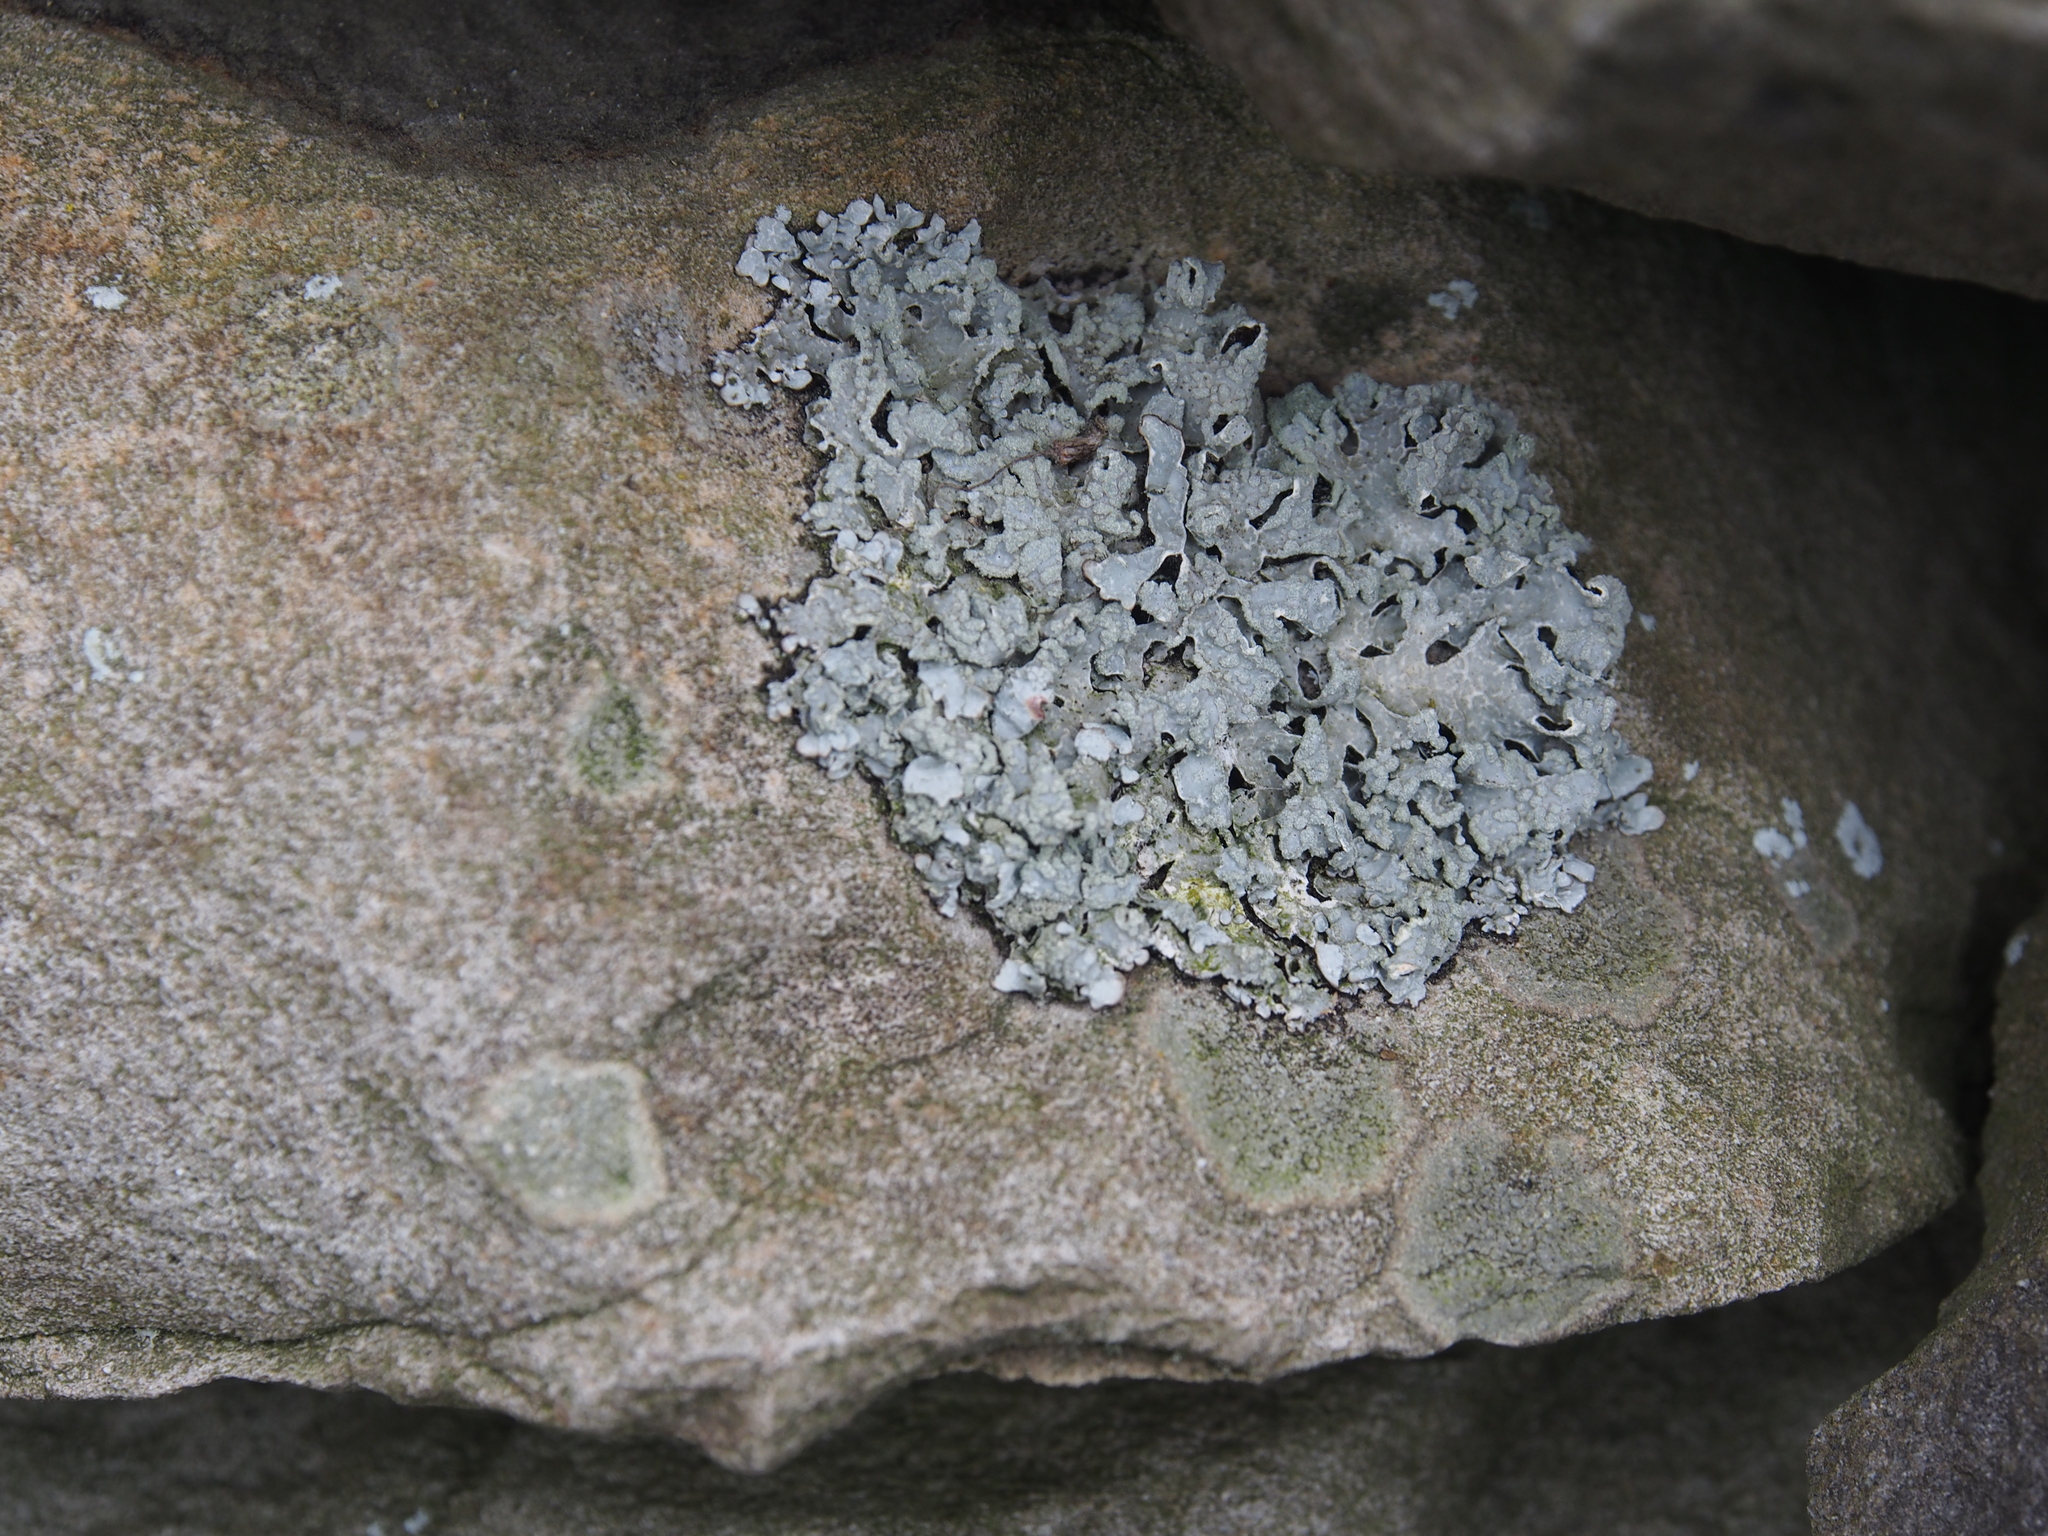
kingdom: Fungi
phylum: Ascomycota
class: Lecanoromycetes
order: Lecanorales
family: Parmeliaceae
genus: Parmelia
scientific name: Parmelia sulcata
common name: Netted shield lichen
